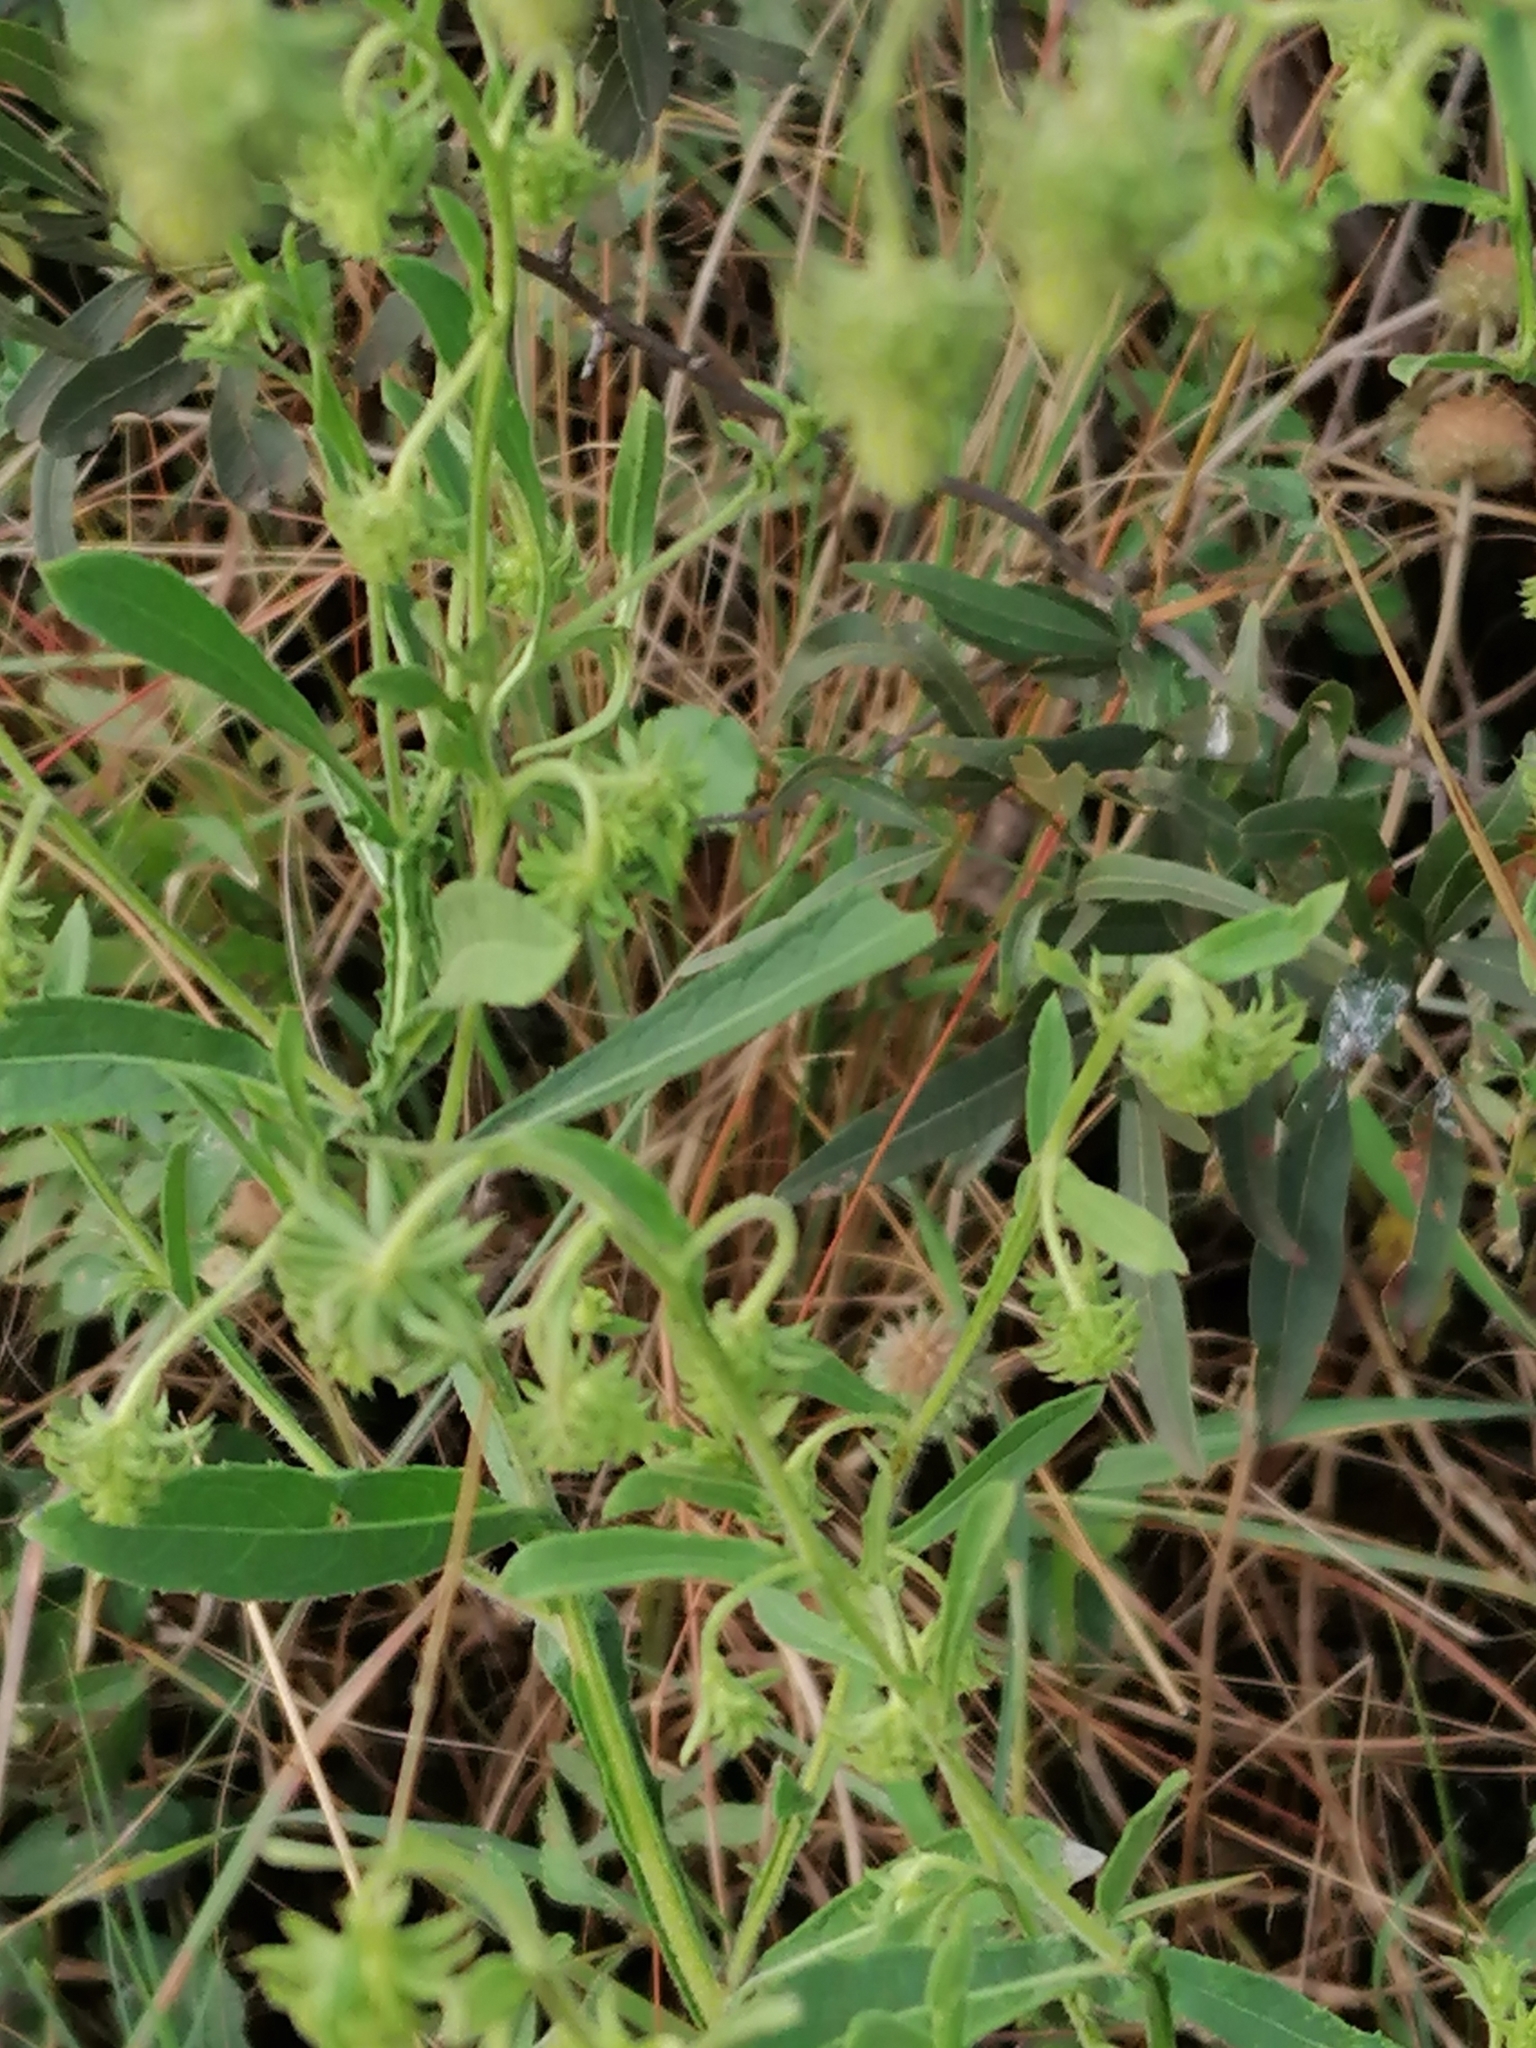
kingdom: Plantae
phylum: Tracheophyta
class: Magnoliopsida
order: Asterales
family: Asteraceae
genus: Laggera
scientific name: Laggera crispata
